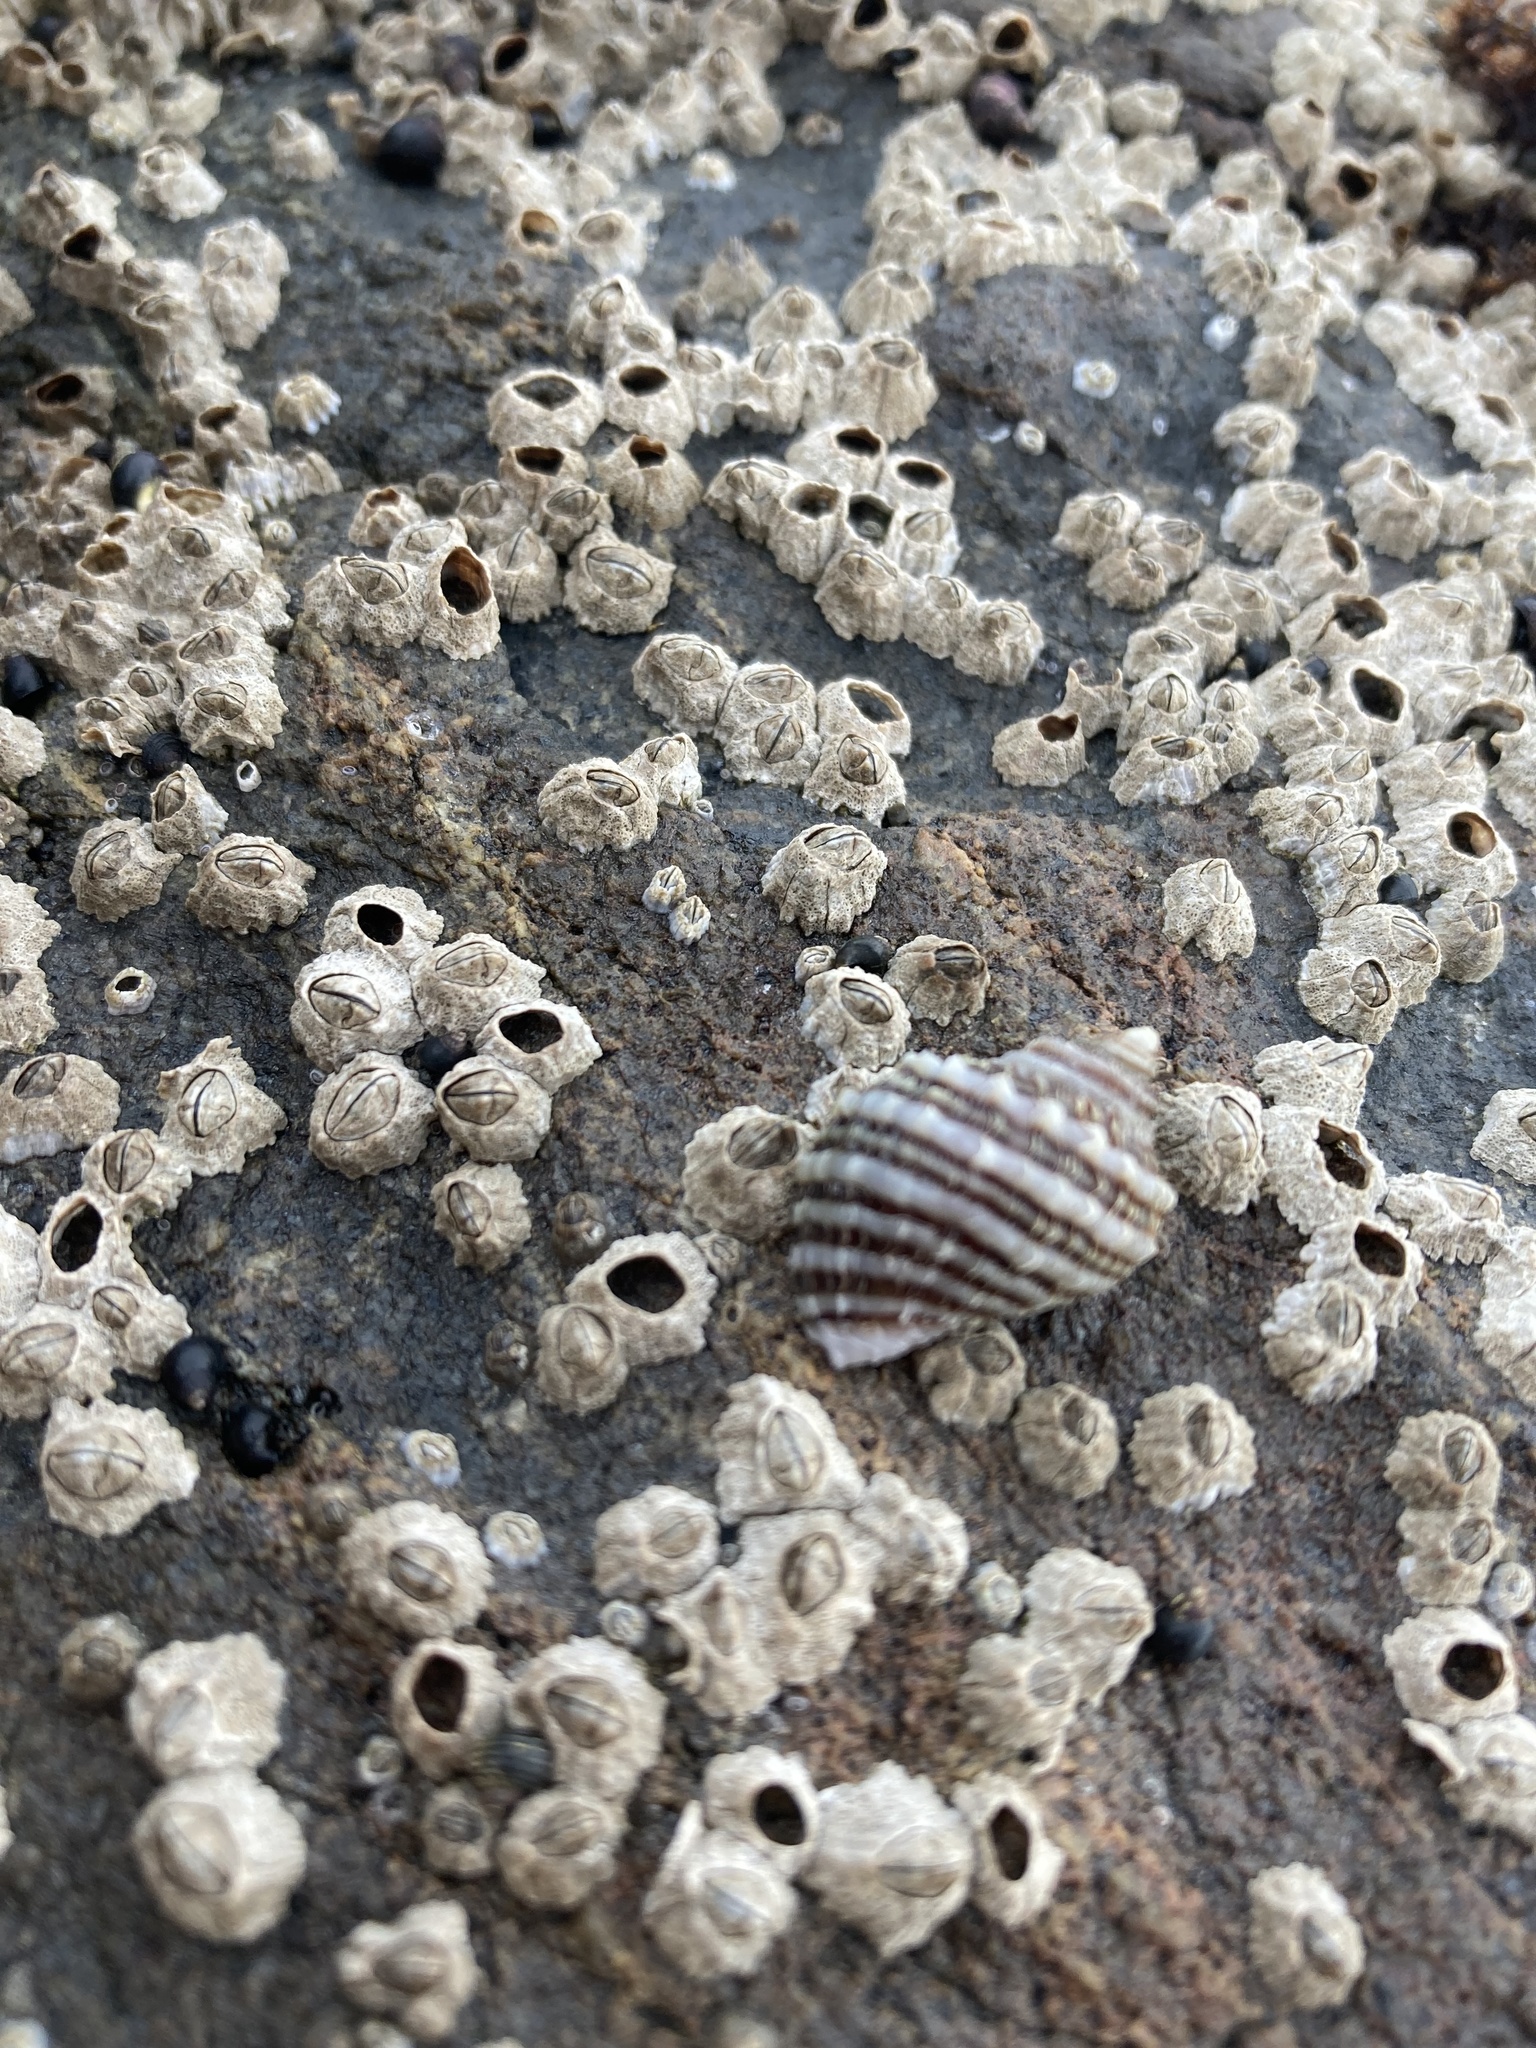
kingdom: Animalia
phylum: Mollusca
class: Gastropoda
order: Neogastropoda
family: Muricidae
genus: Nucella
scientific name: Nucella ostrina
